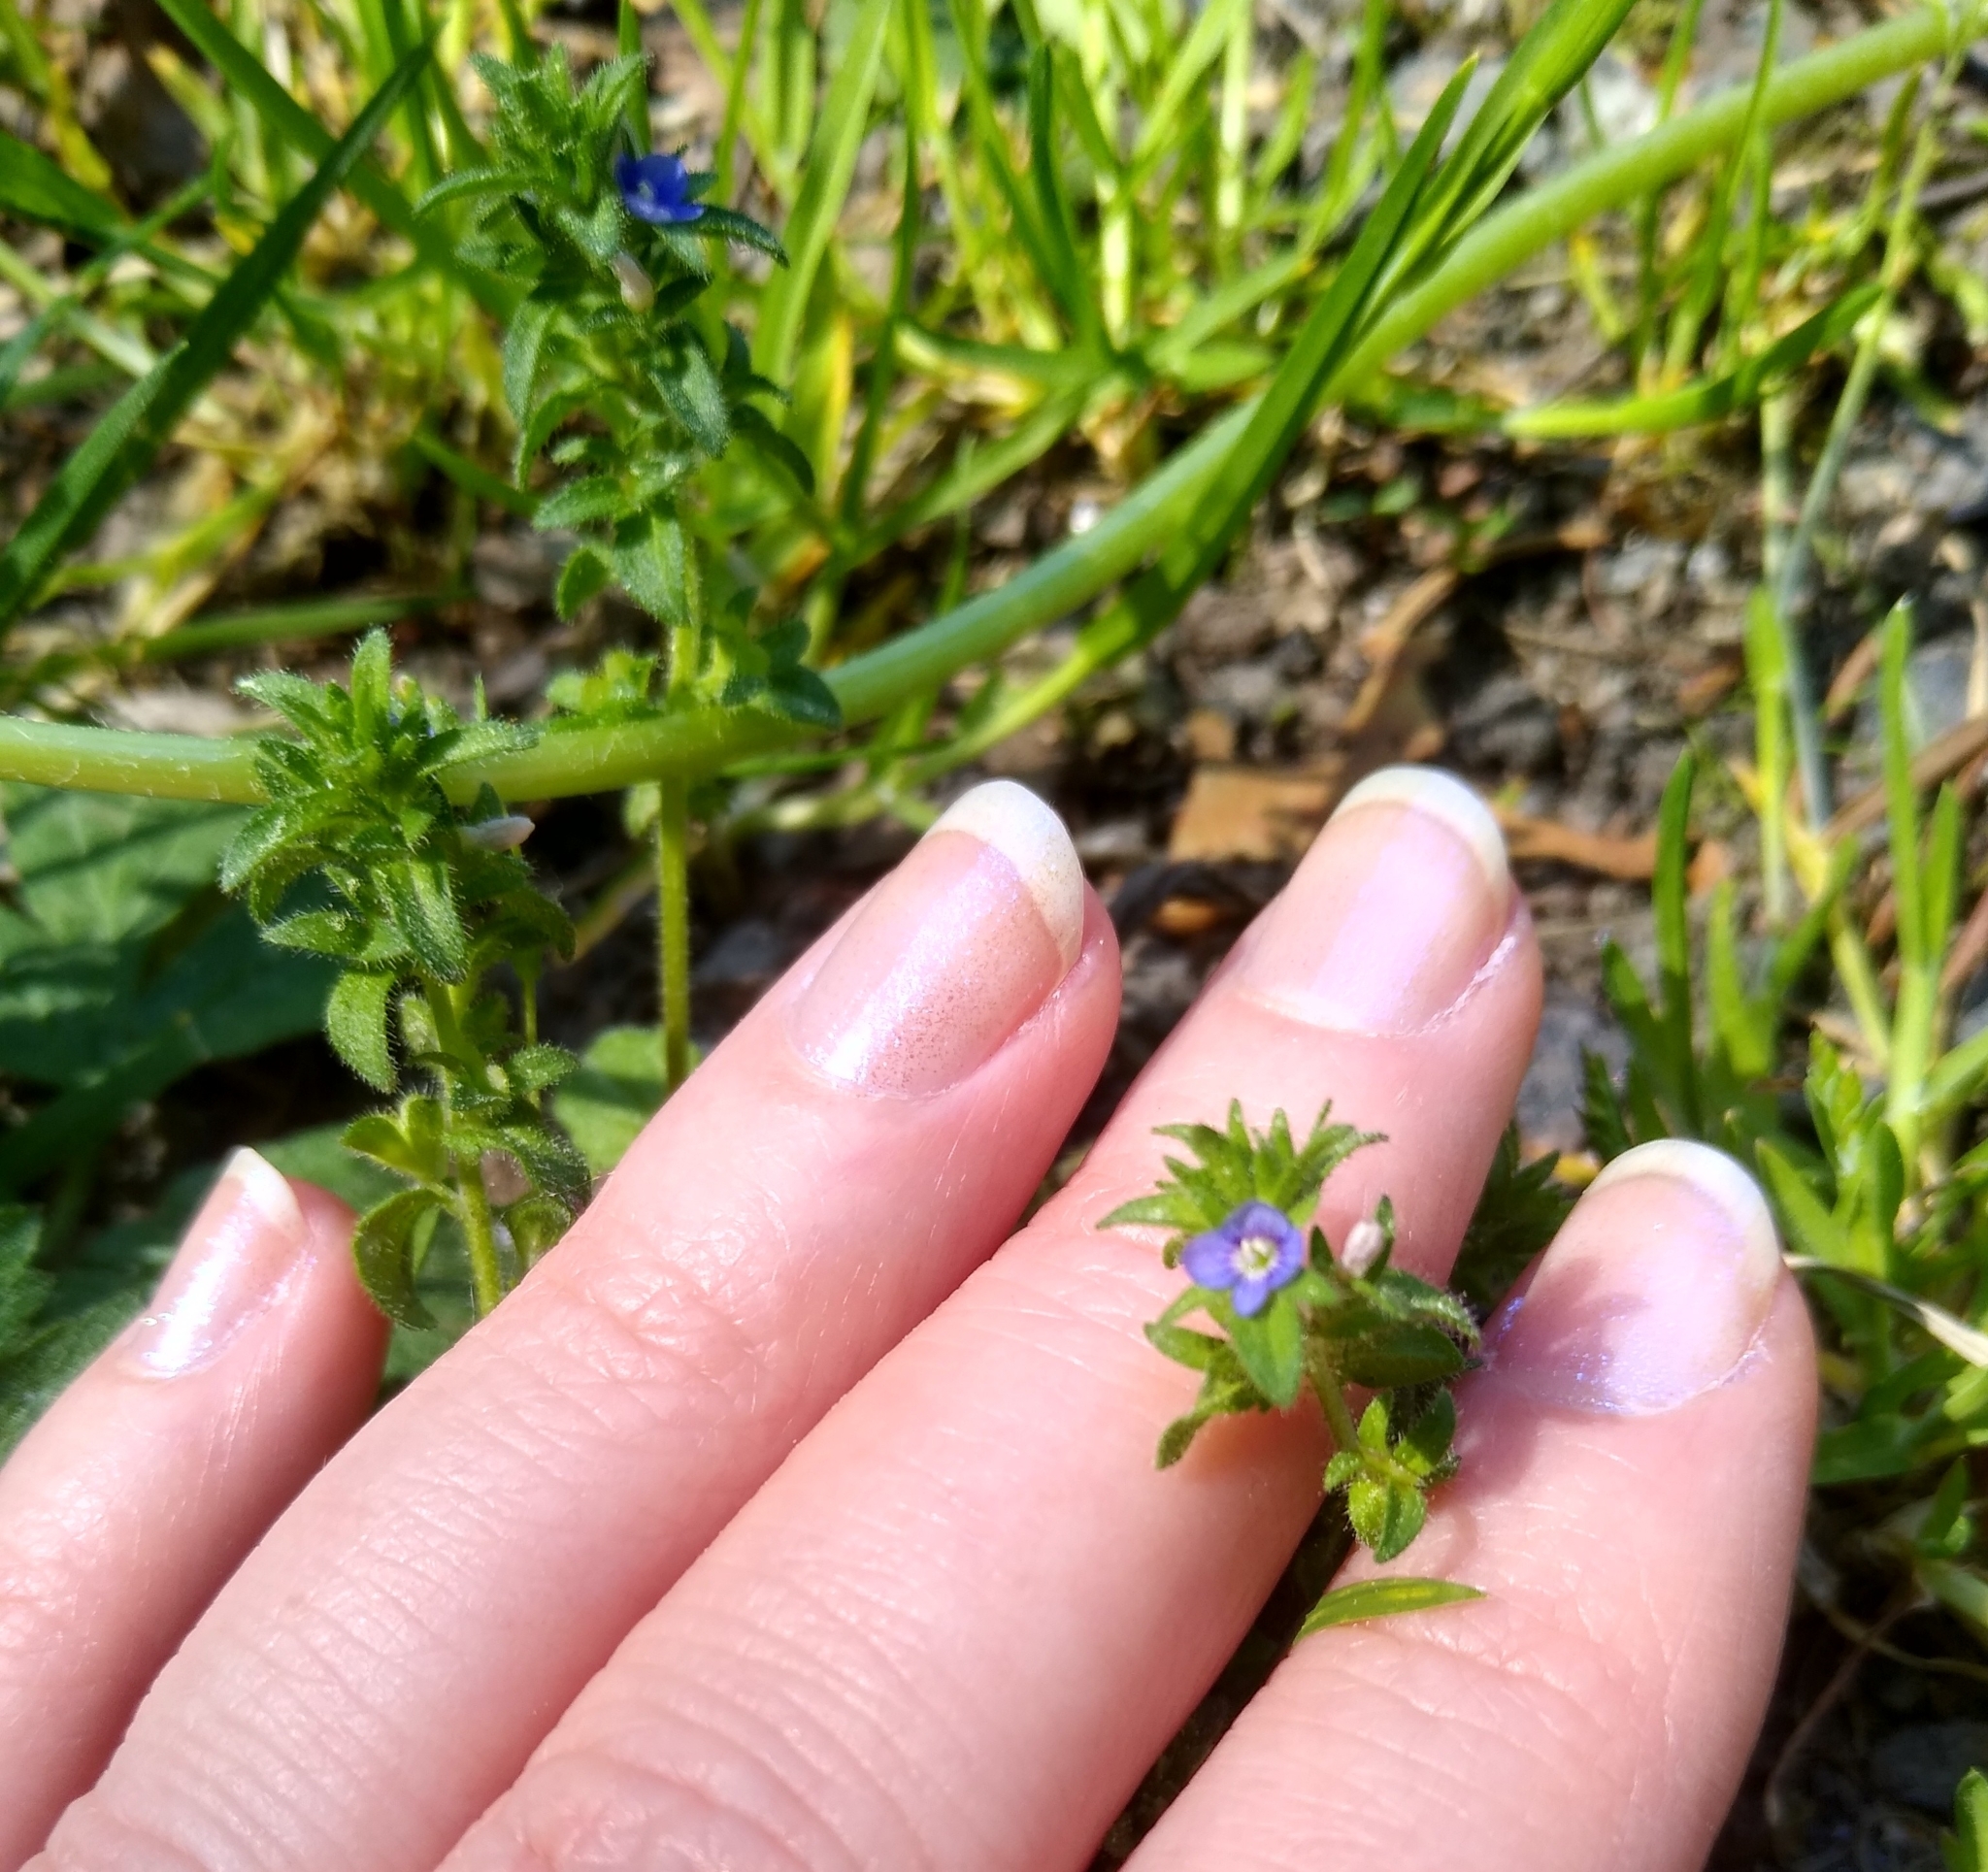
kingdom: Plantae
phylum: Tracheophyta
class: Magnoliopsida
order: Lamiales
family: Plantaginaceae
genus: Veronica
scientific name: Veronica arvensis
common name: Corn speedwell
